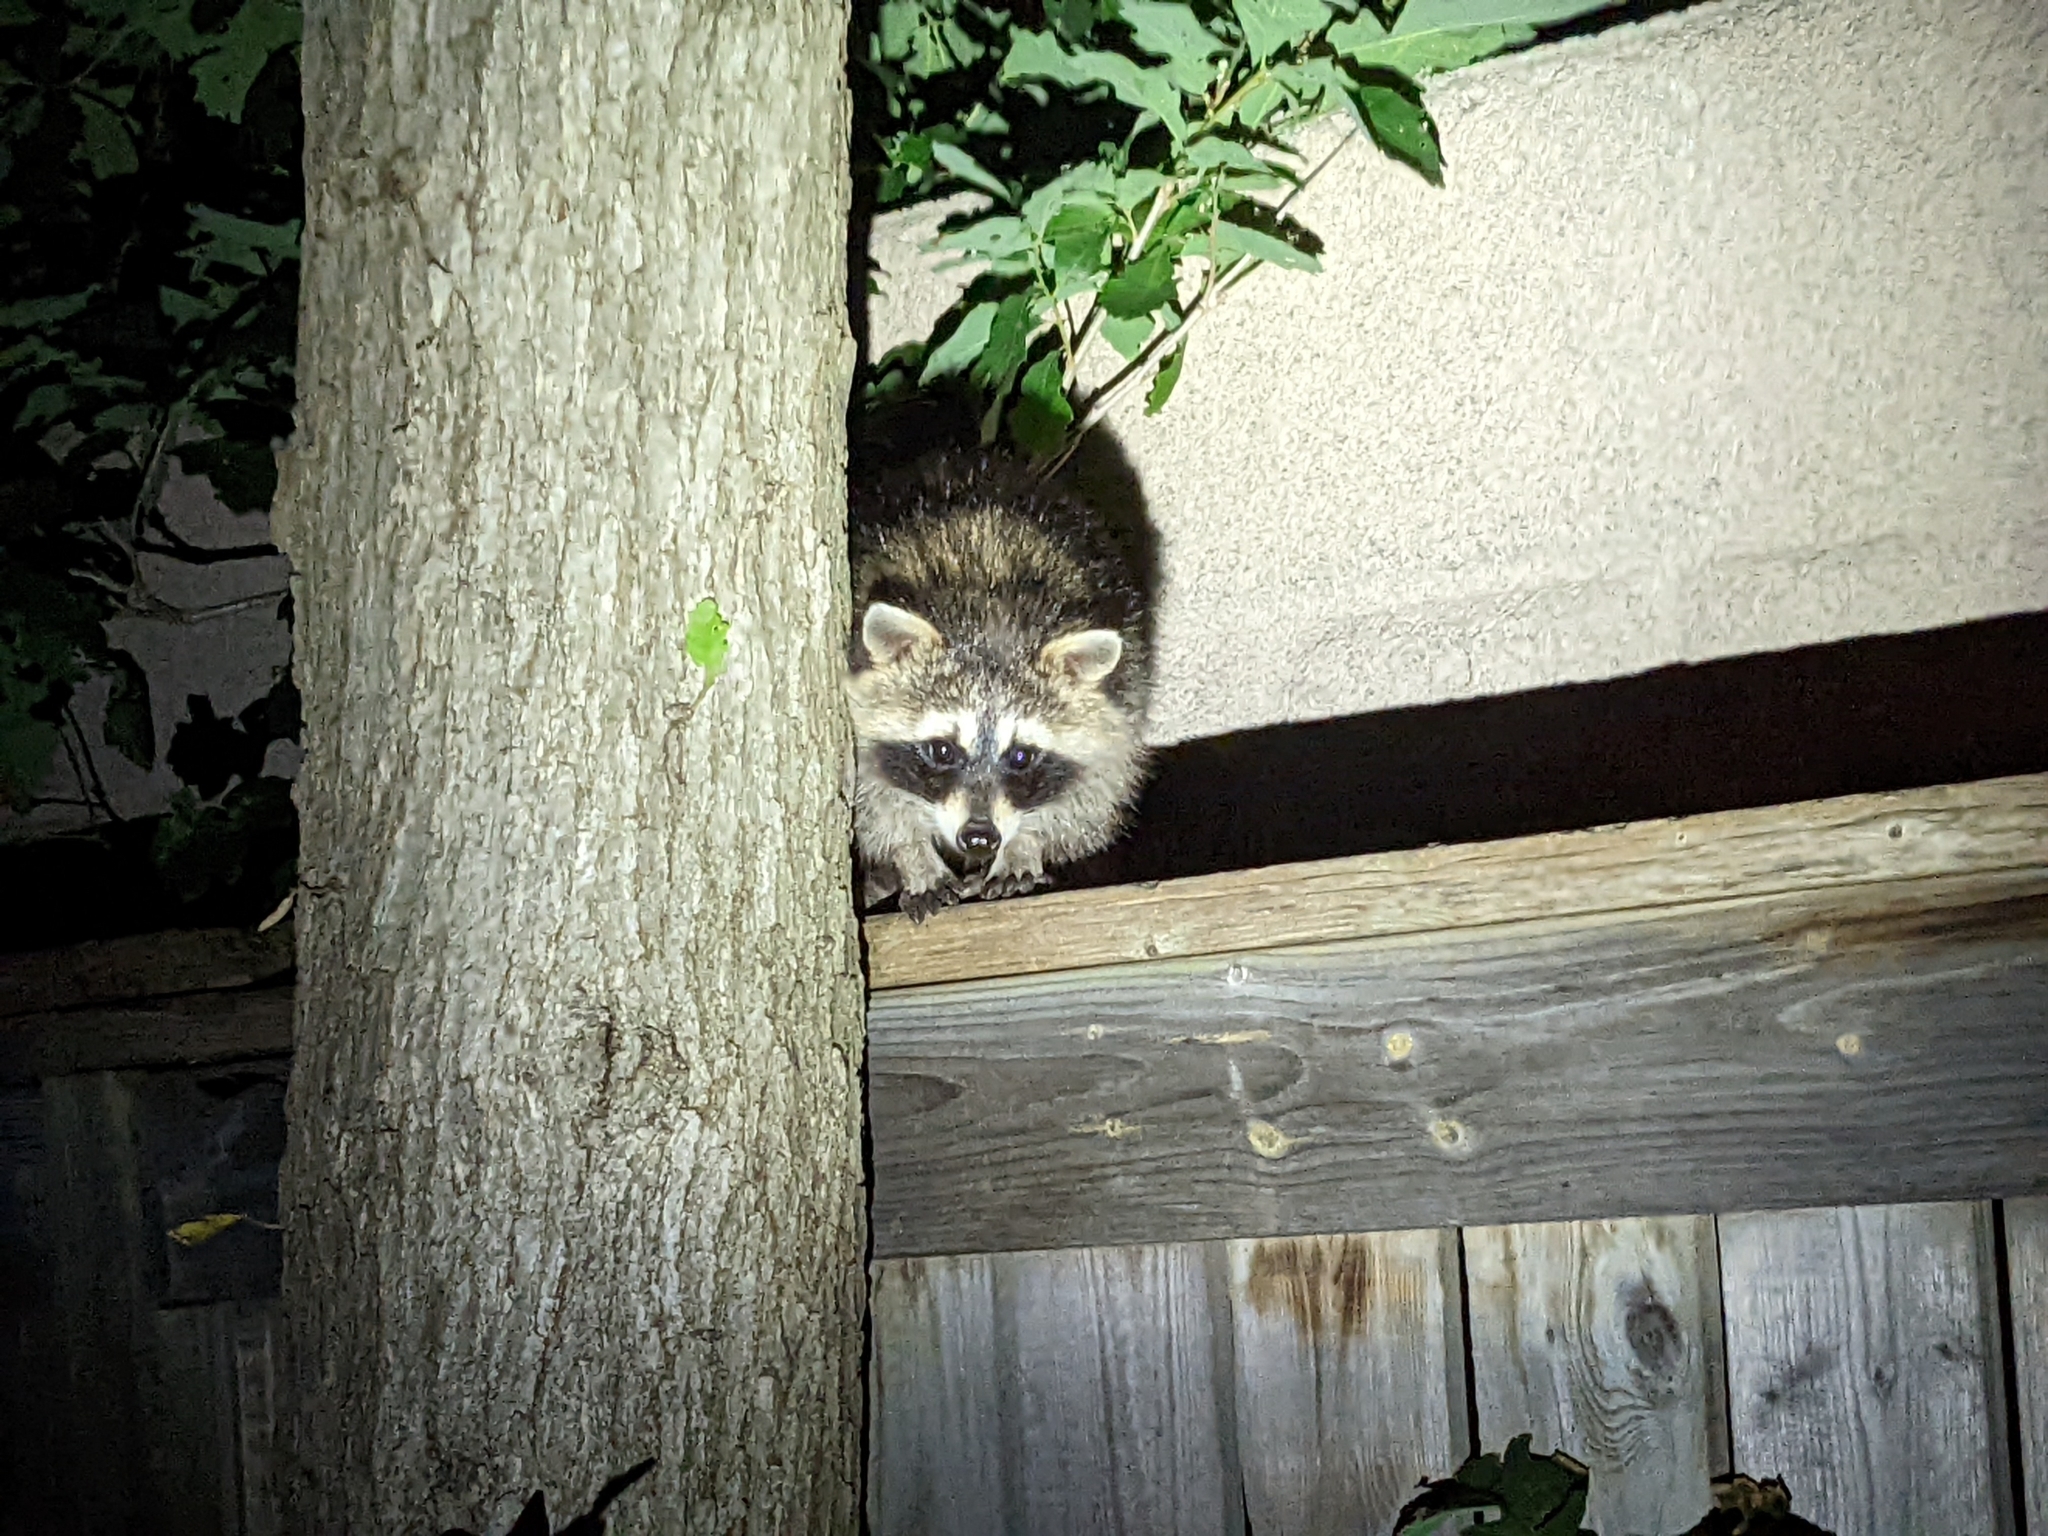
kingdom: Animalia
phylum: Chordata
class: Mammalia
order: Carnivora
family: Procyonidae
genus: Procyon
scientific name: Procyon lotor
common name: Raccoon
